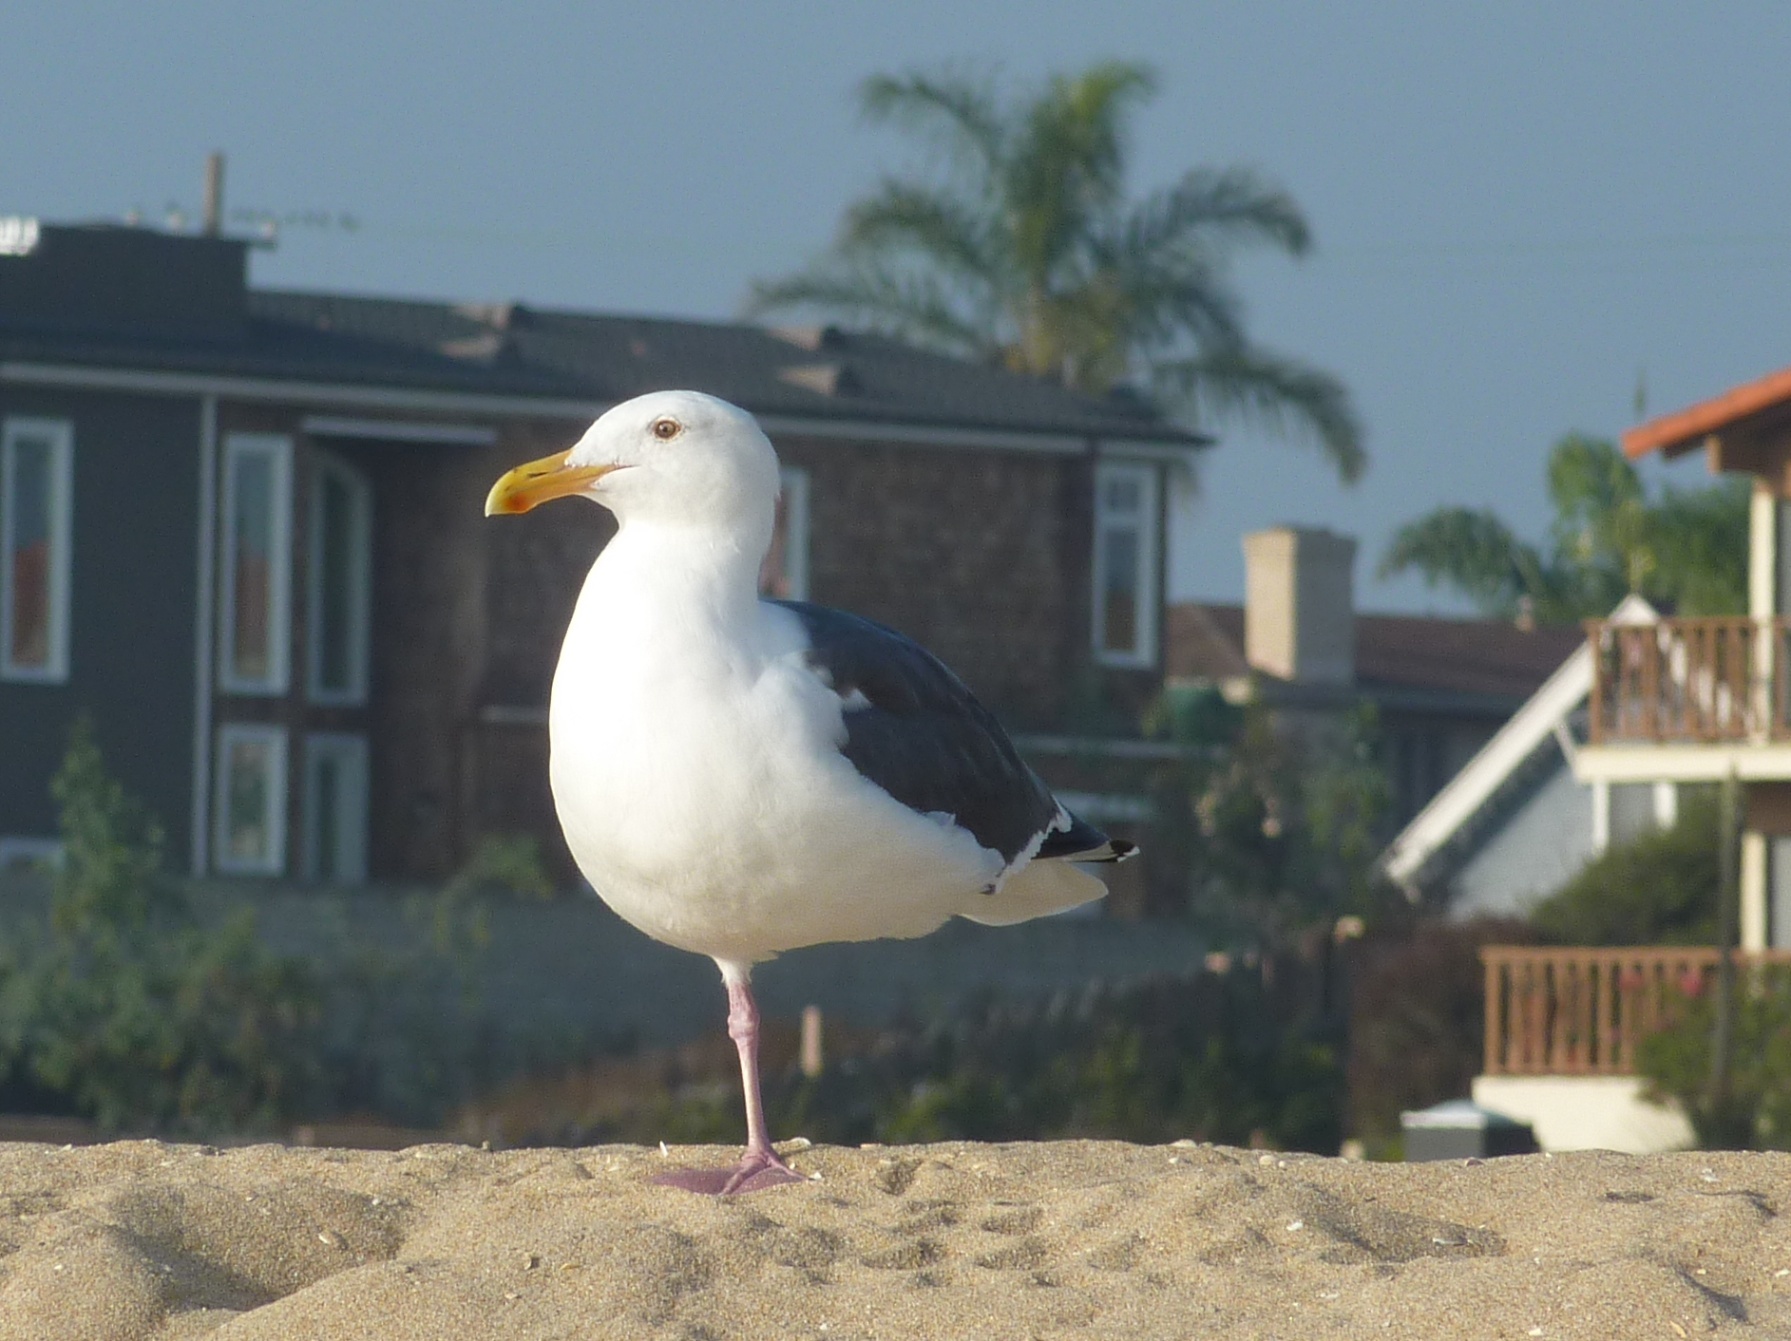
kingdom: Animalia
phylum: Chordata
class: Aves
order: Charadriiformes
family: Laridae
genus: Larus
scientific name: Larus occidentalis
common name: Western gull
